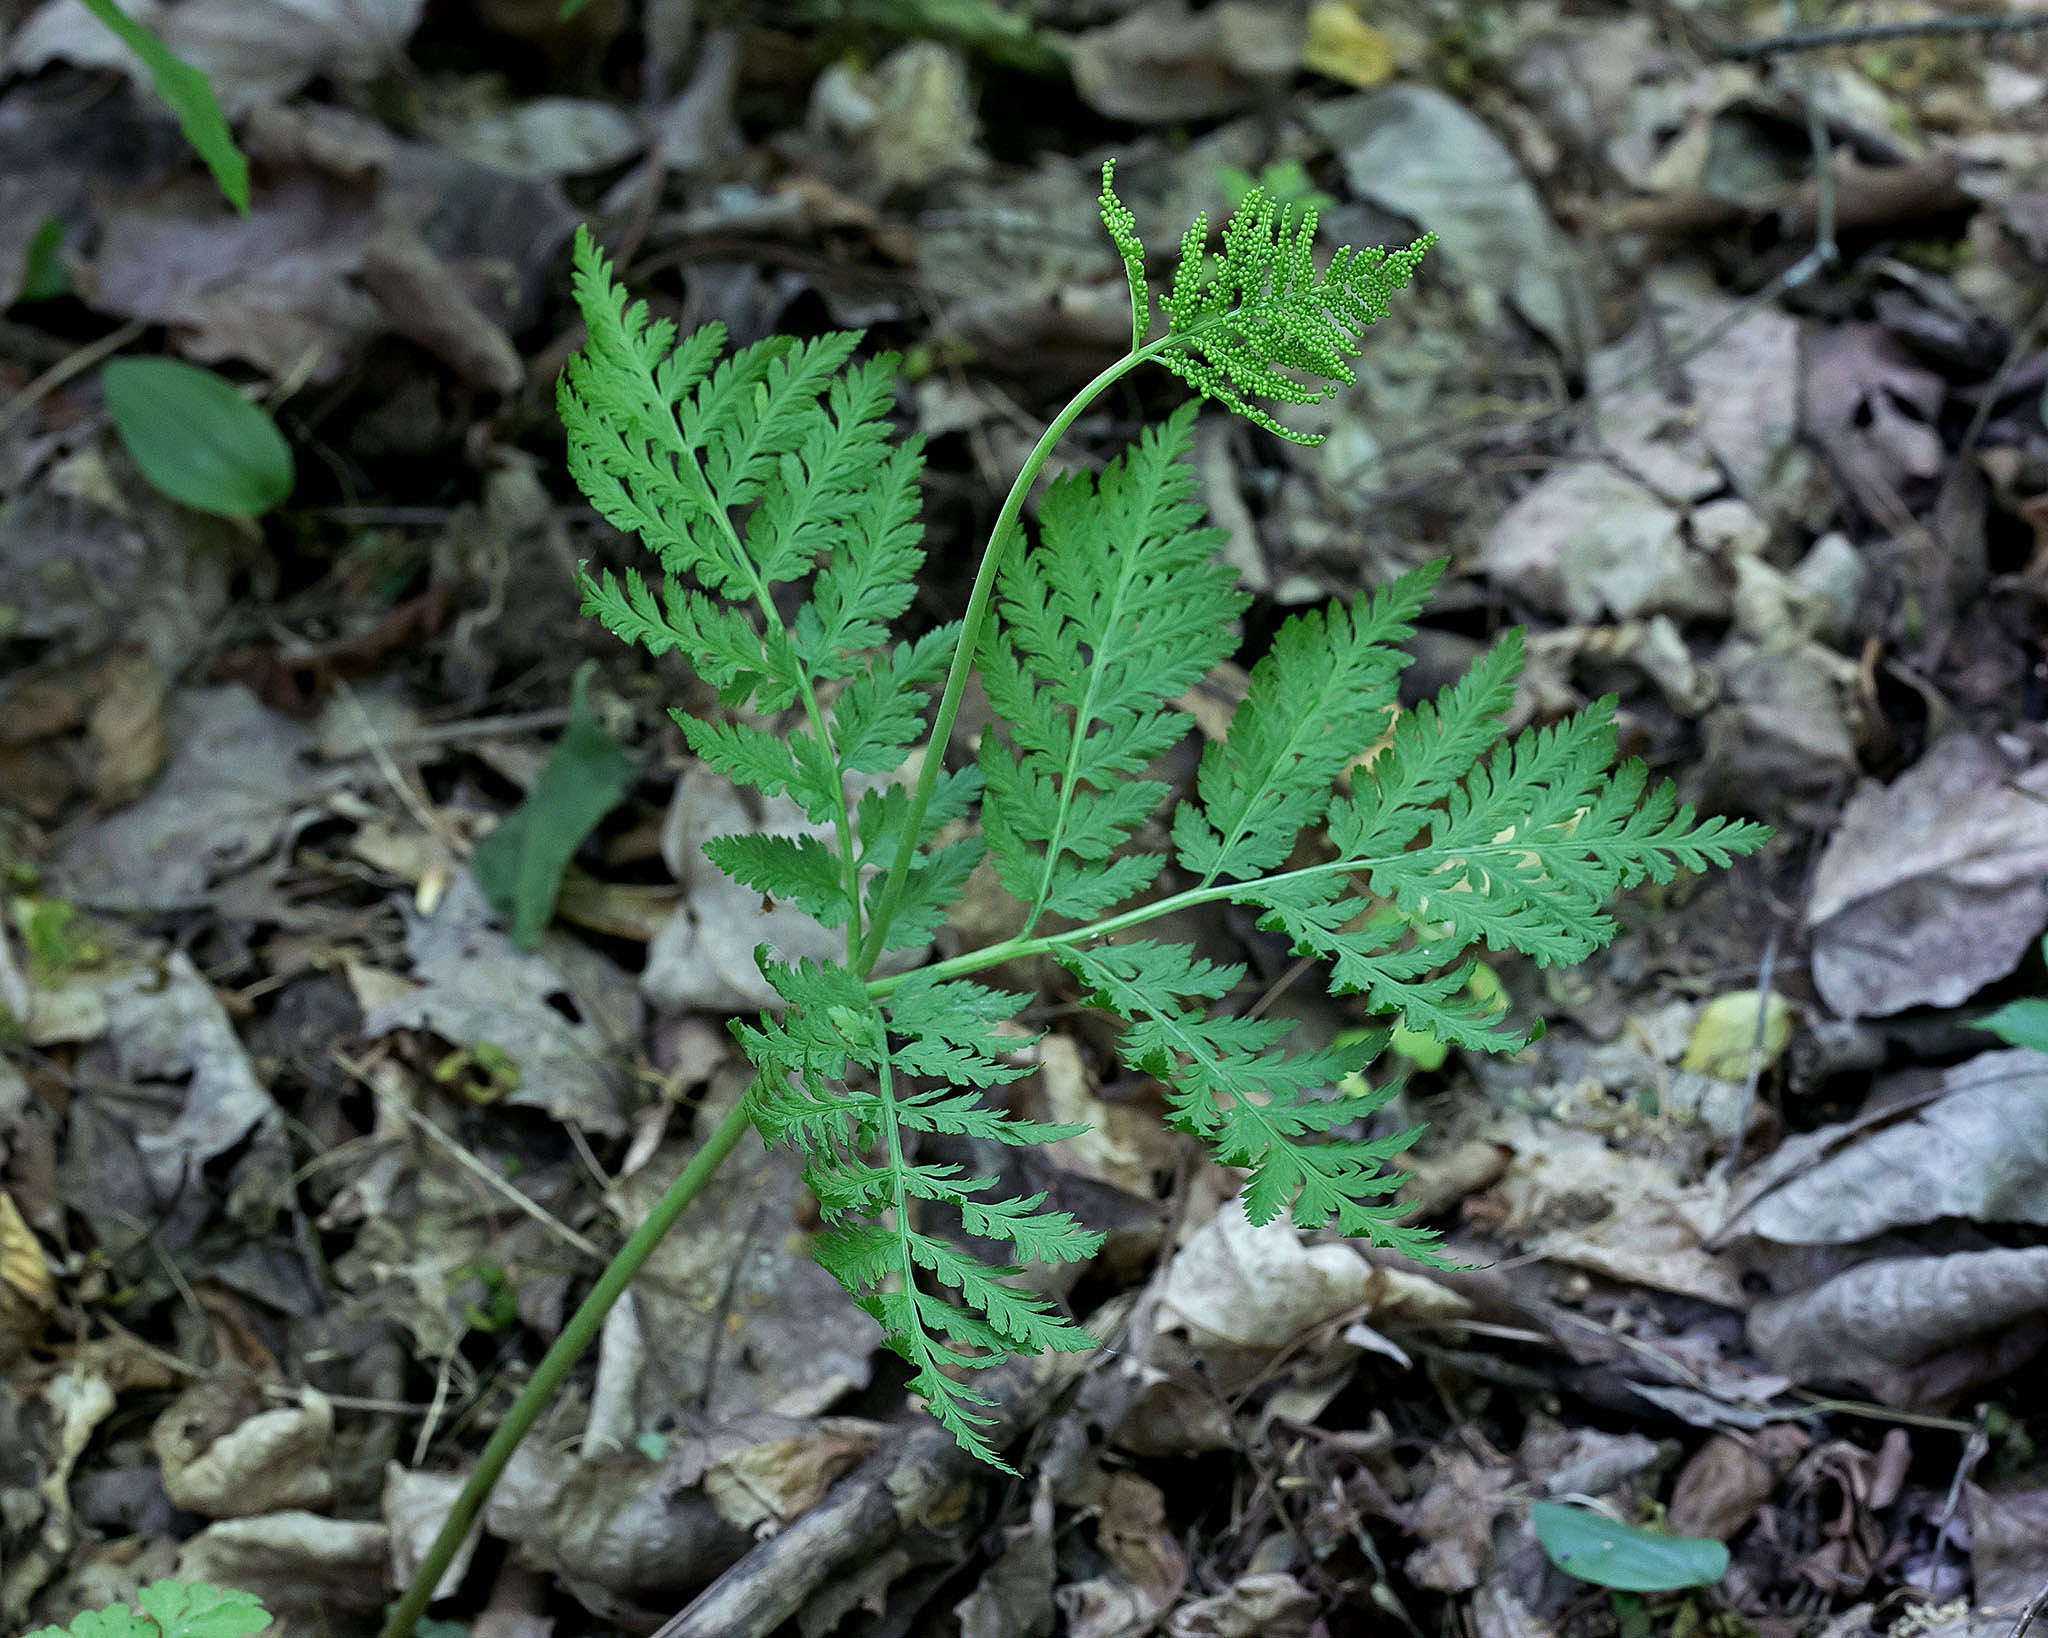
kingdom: Plantae
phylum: Tracheophyta
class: Polypodiopsida
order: Ophioglossales
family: Ophioglossaceae
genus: Botrypus
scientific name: Botrypus virginianus
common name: Common grapefern
